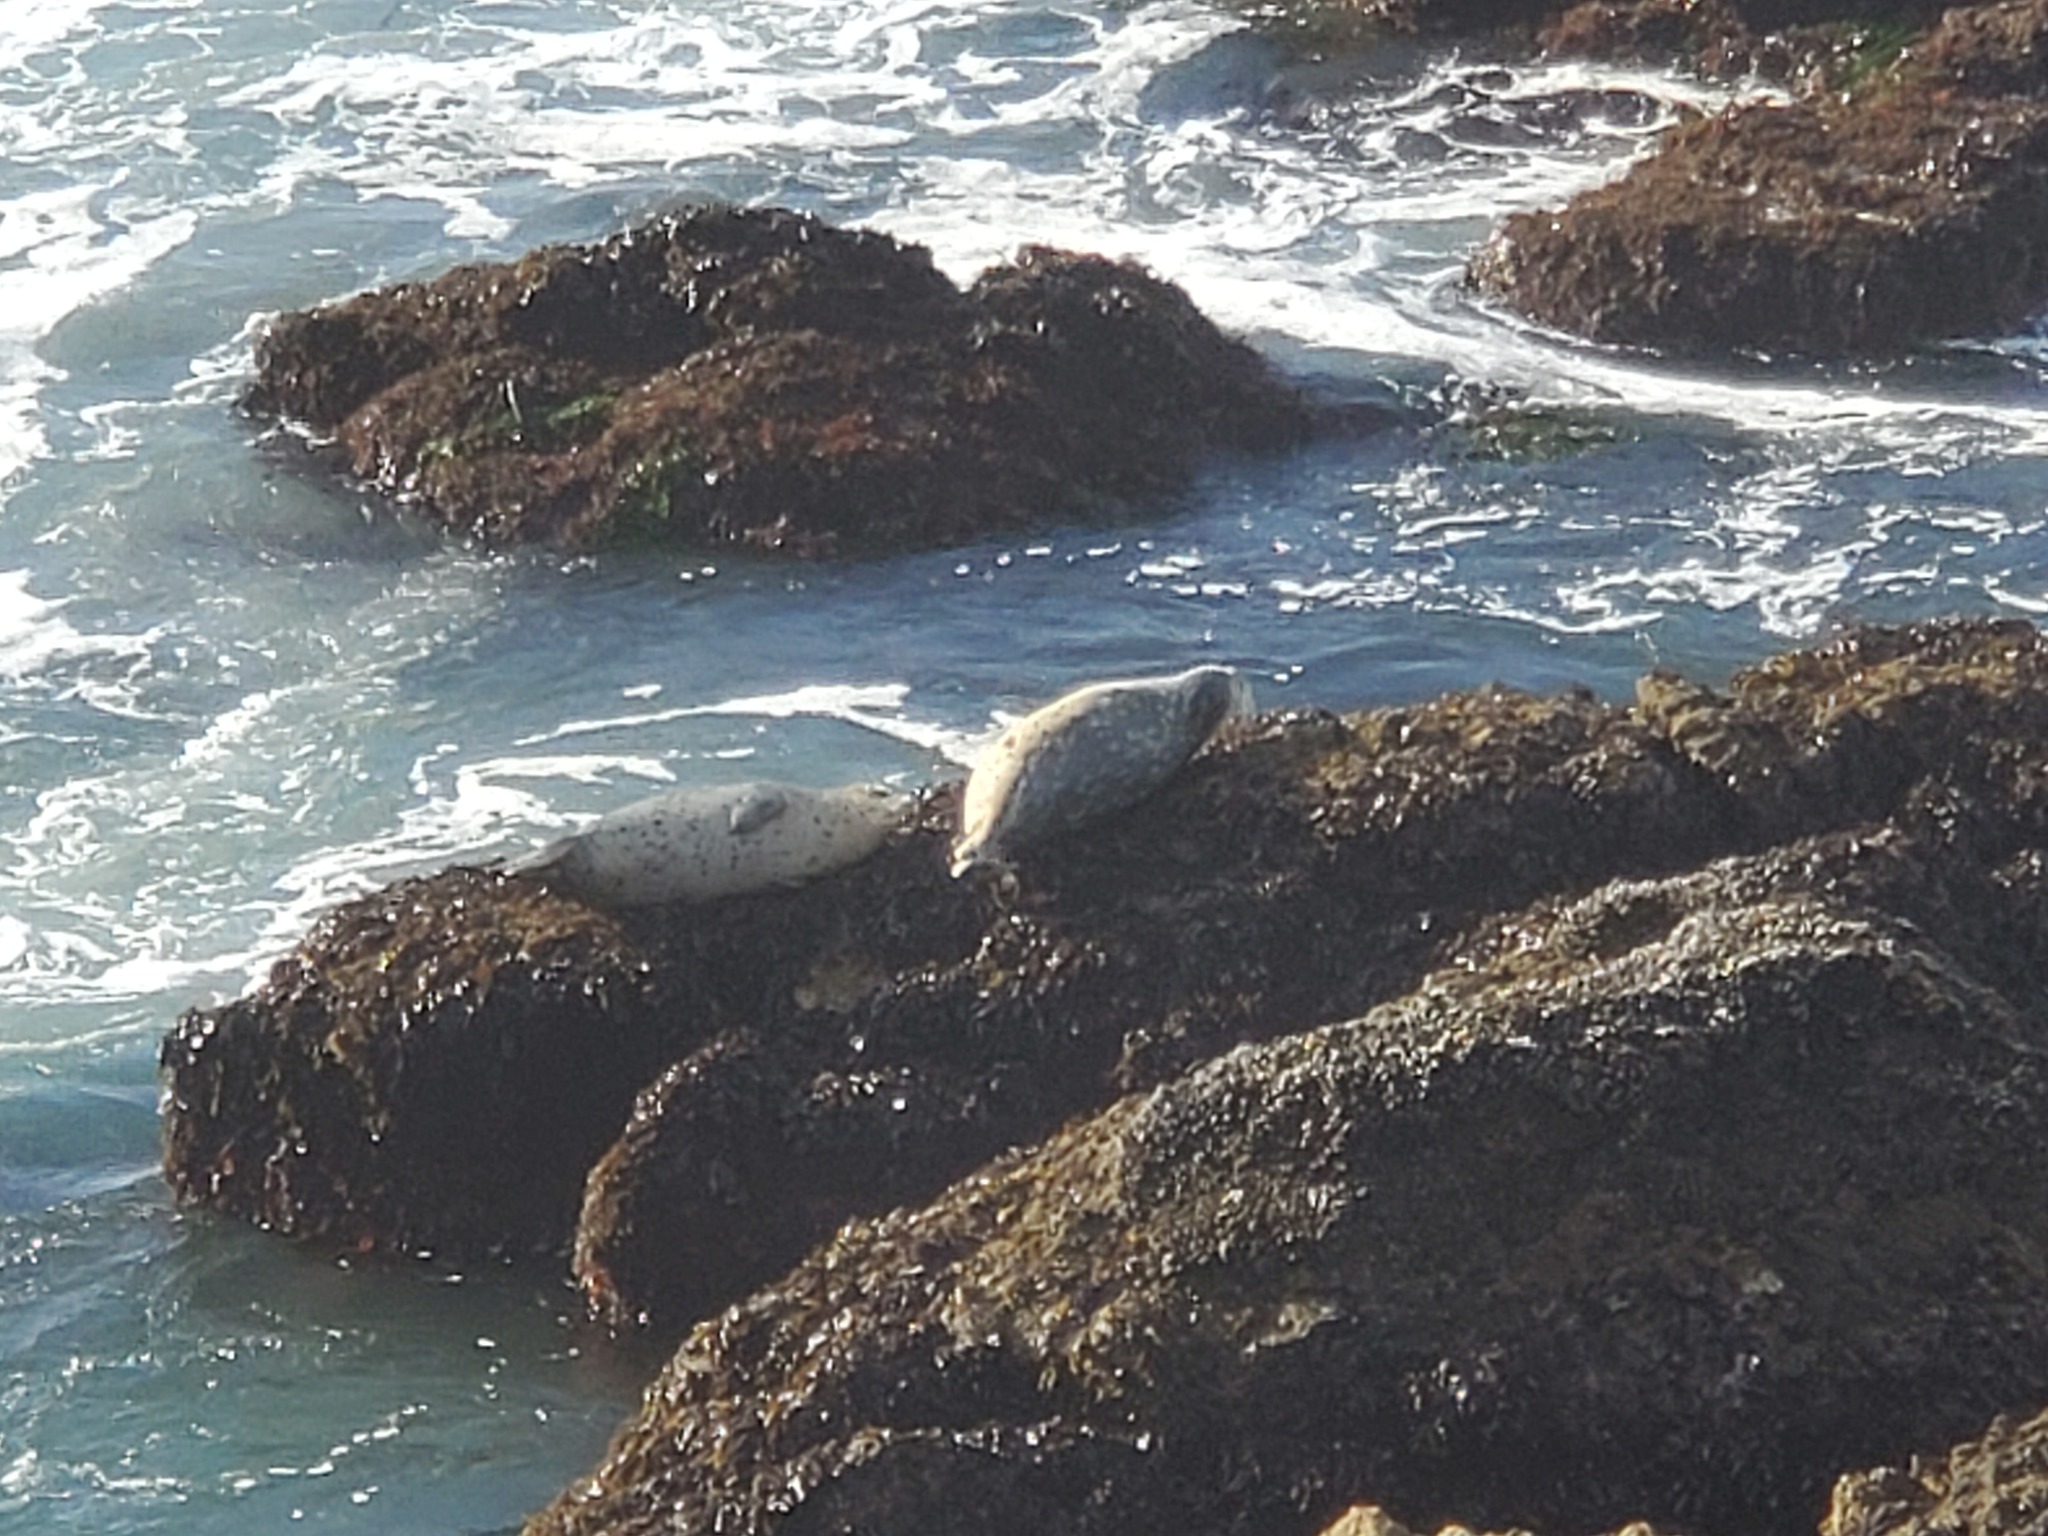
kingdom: Animalia
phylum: Chordata
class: Mammalia
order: Carnivora
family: Phocidae
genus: Phoca
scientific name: Phoca vitulina
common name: Harbor seal
